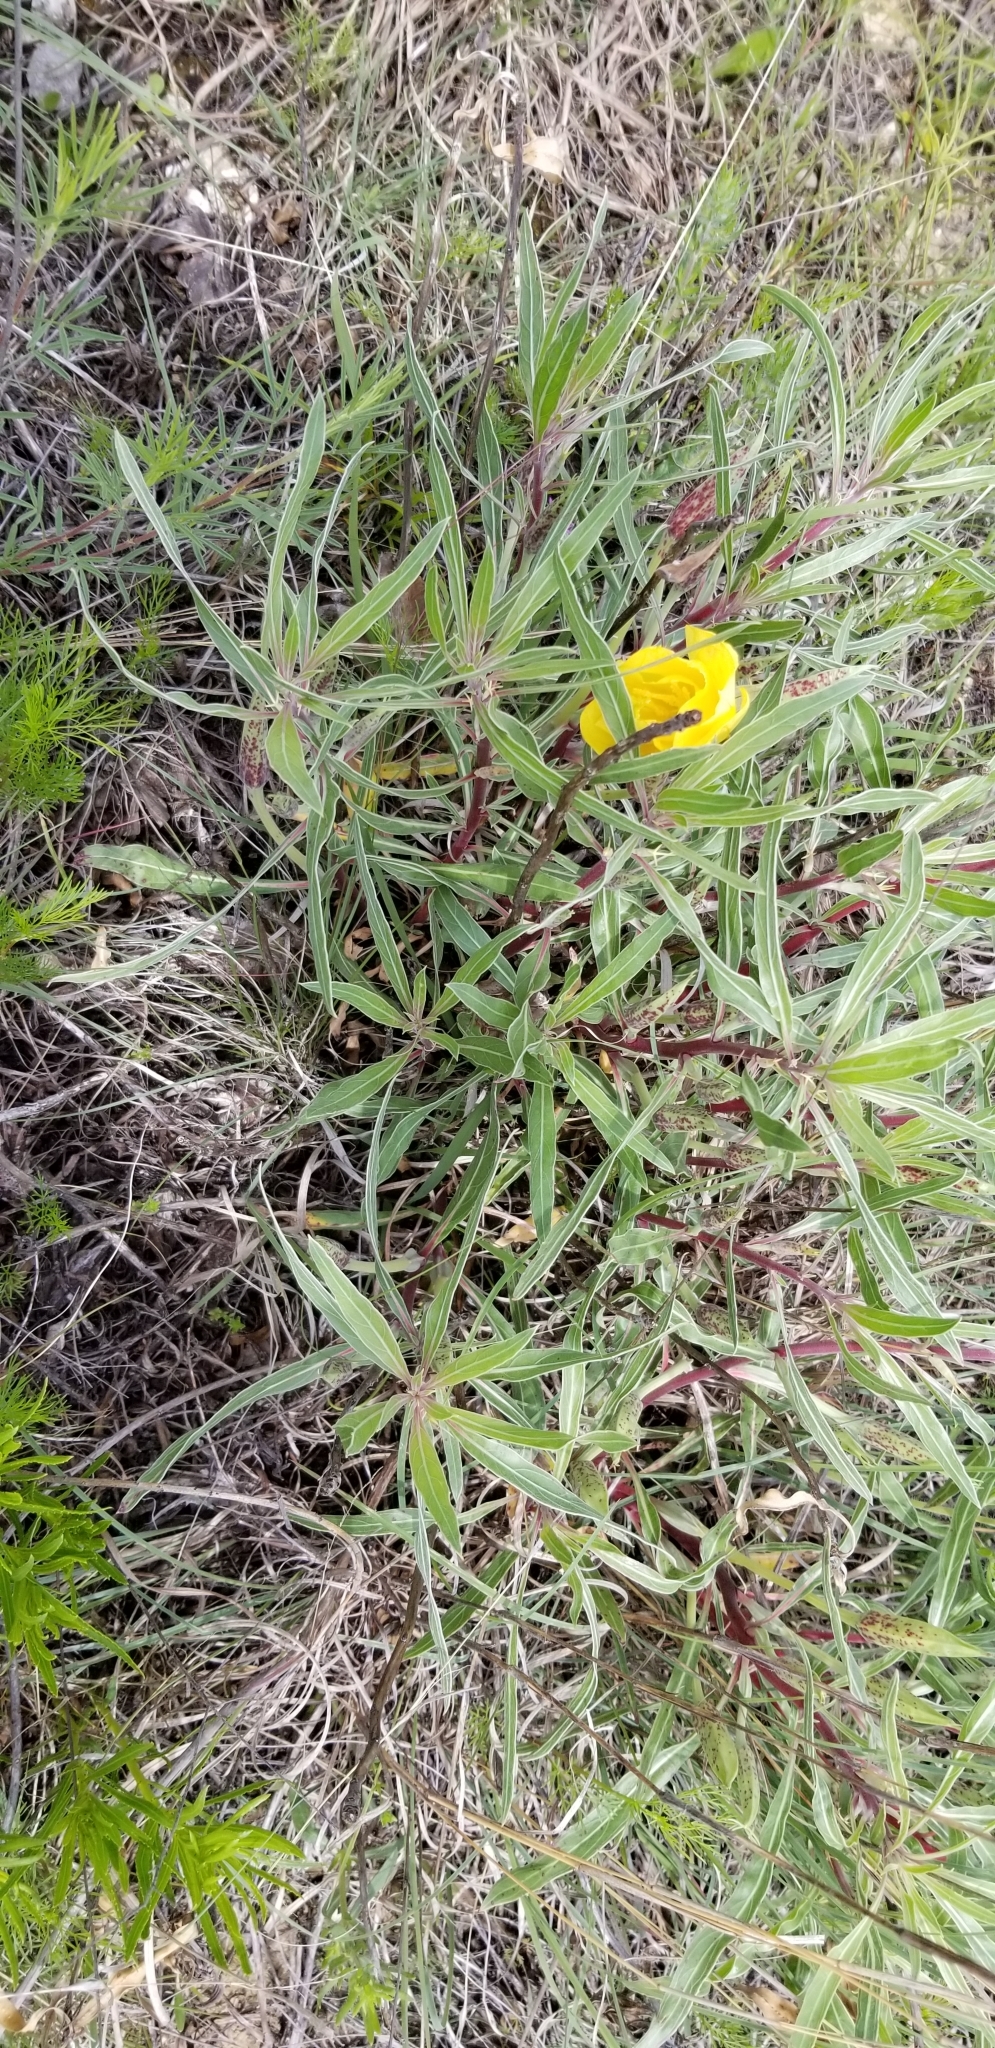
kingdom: Plantae
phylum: Tracheophyta
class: Magnoliopsida
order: Myrtales
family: Onagraceae
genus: Oenothera
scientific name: Oenothera macrocarpa
